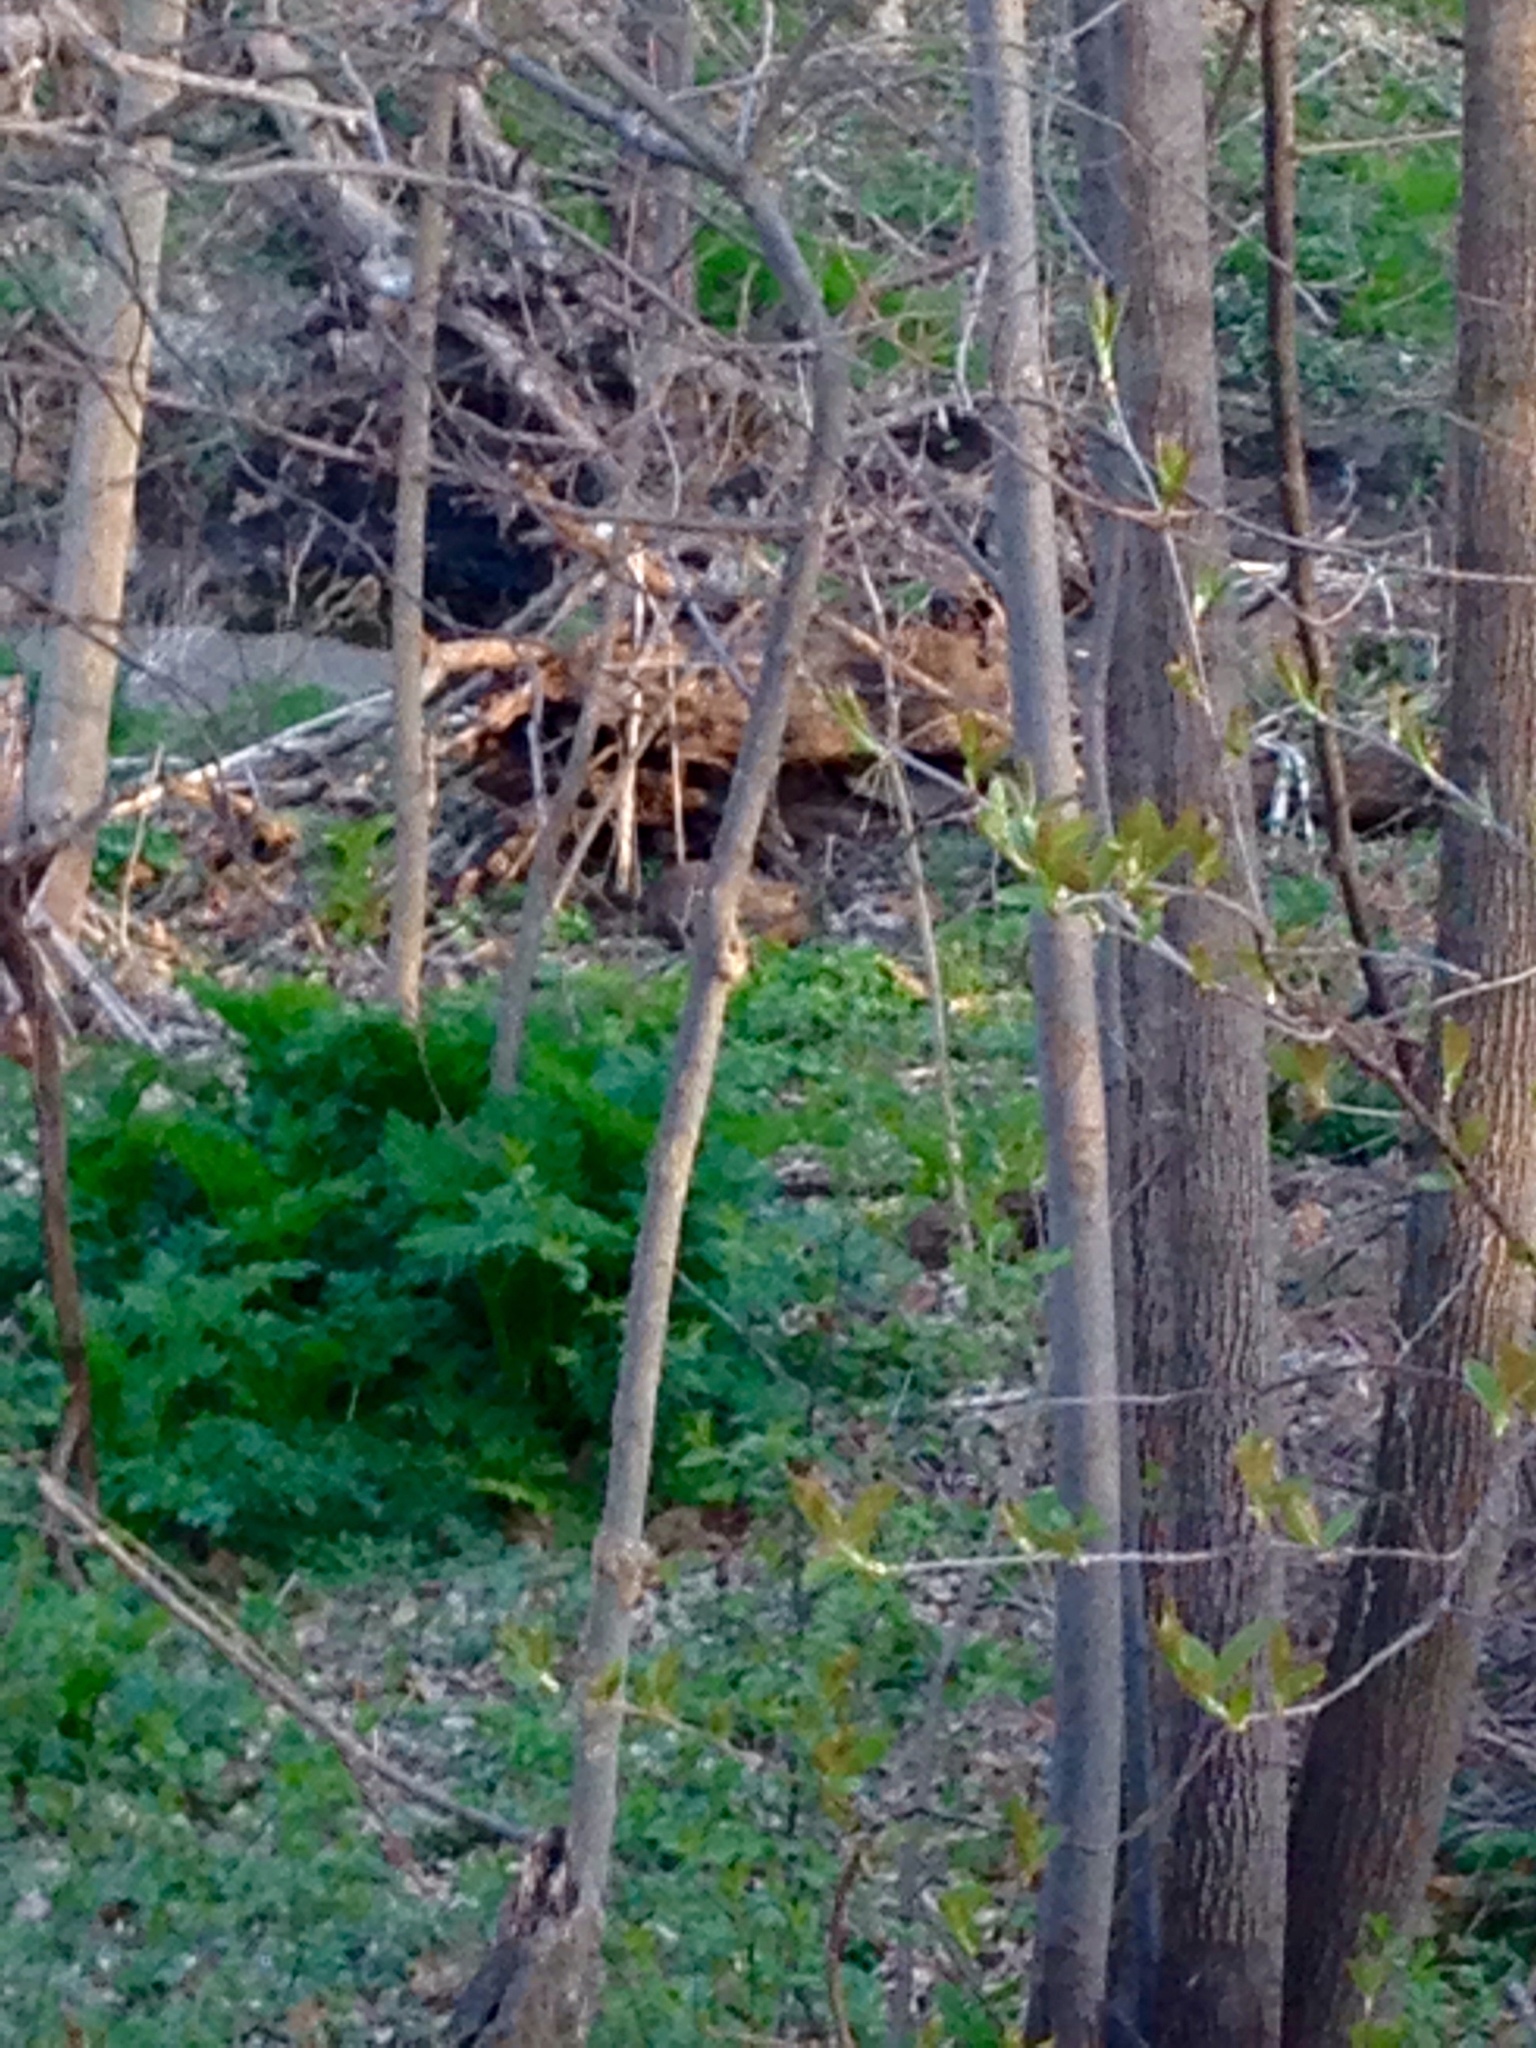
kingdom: Animalia
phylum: Chordata
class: Mammalia
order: Rodentia
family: Sciuridae
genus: Marmota
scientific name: Marmota monax
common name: Groundhog
